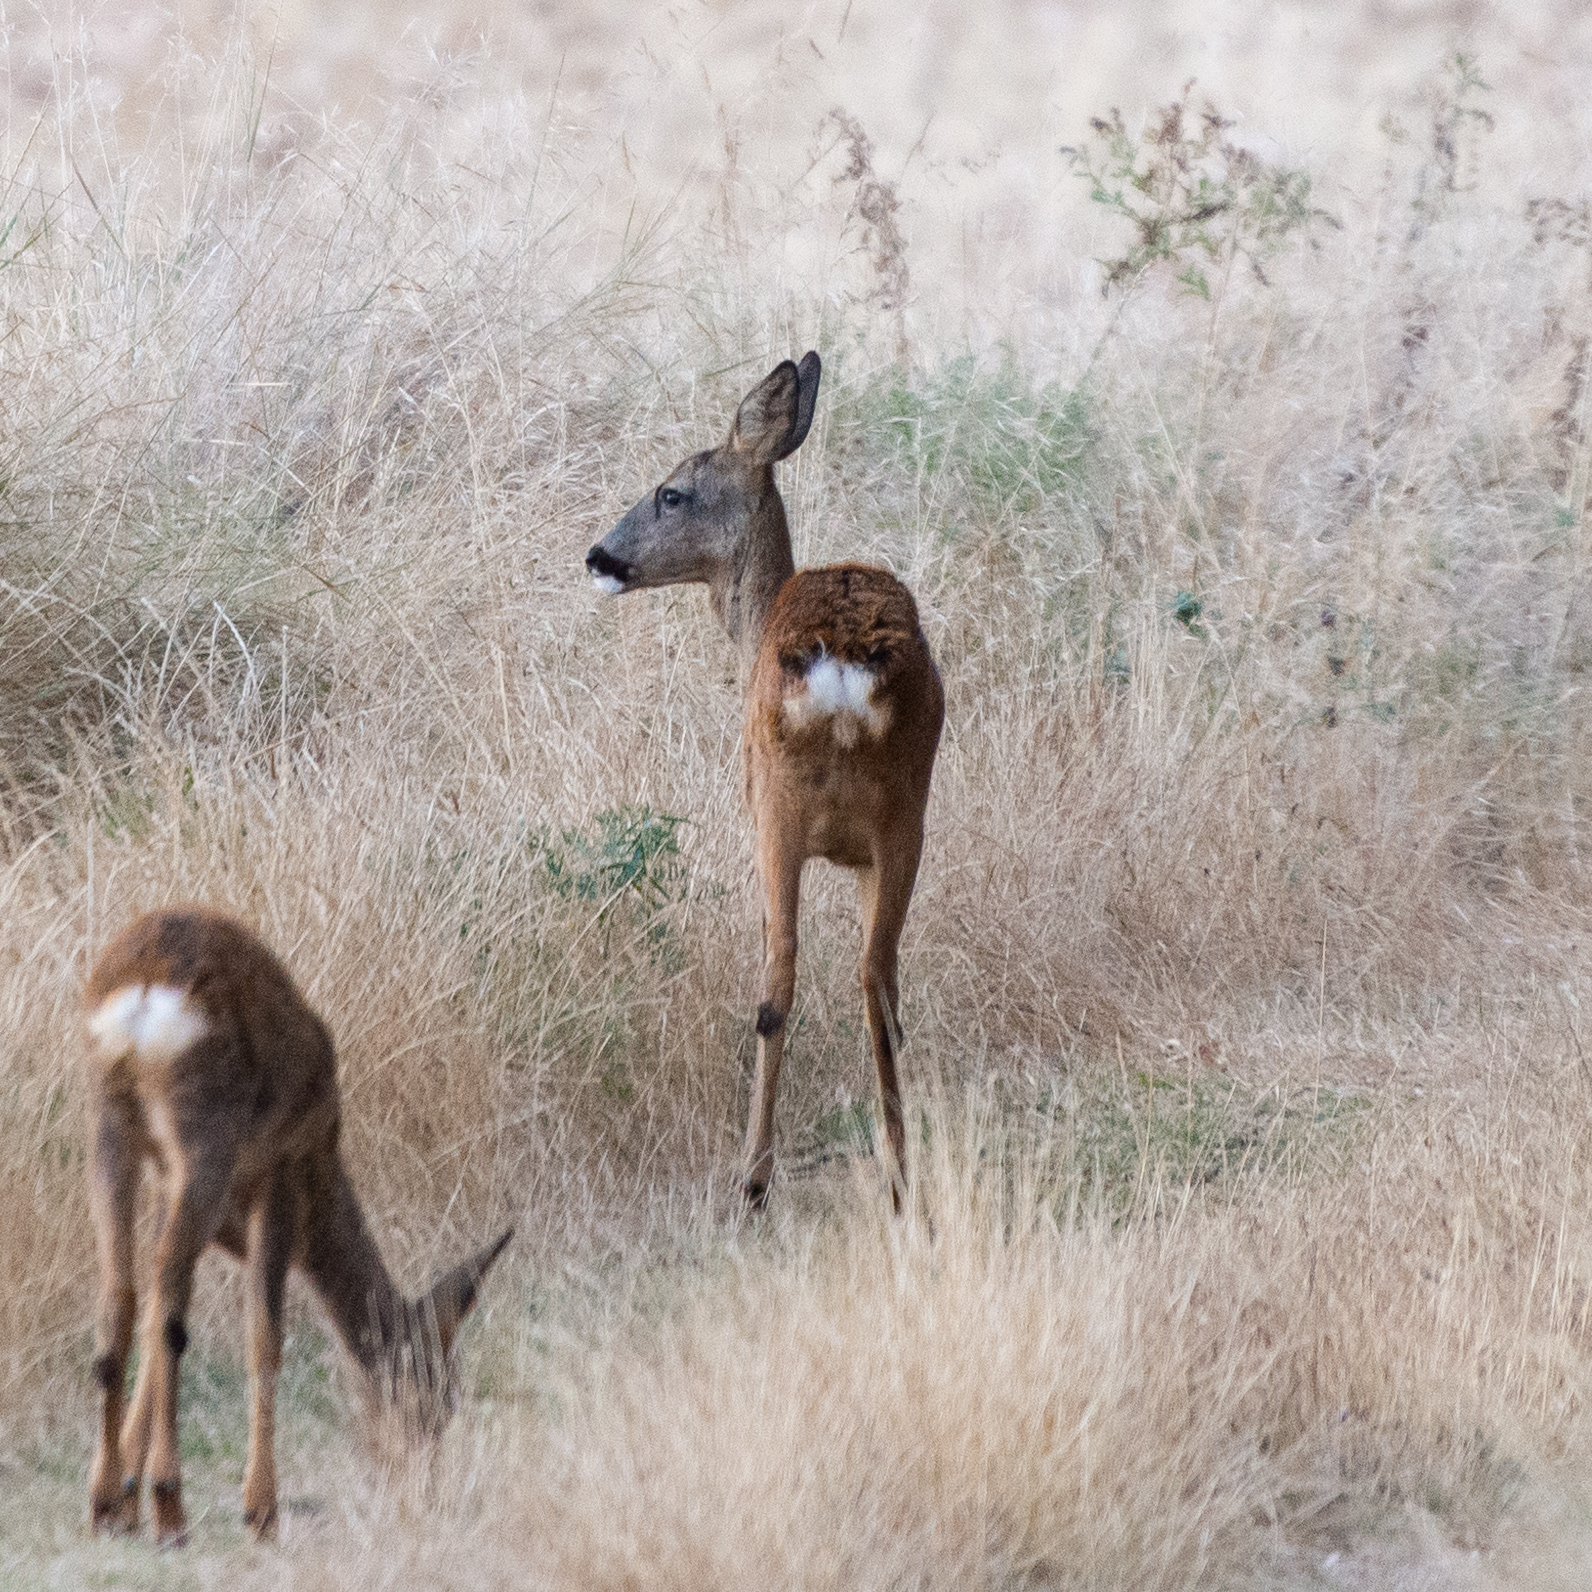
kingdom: Animalia
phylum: Chordata
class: Mammalia
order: Artiodactyla
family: Cervidae
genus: Capreolus
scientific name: Capreolus capreolus
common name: Western roe deer
